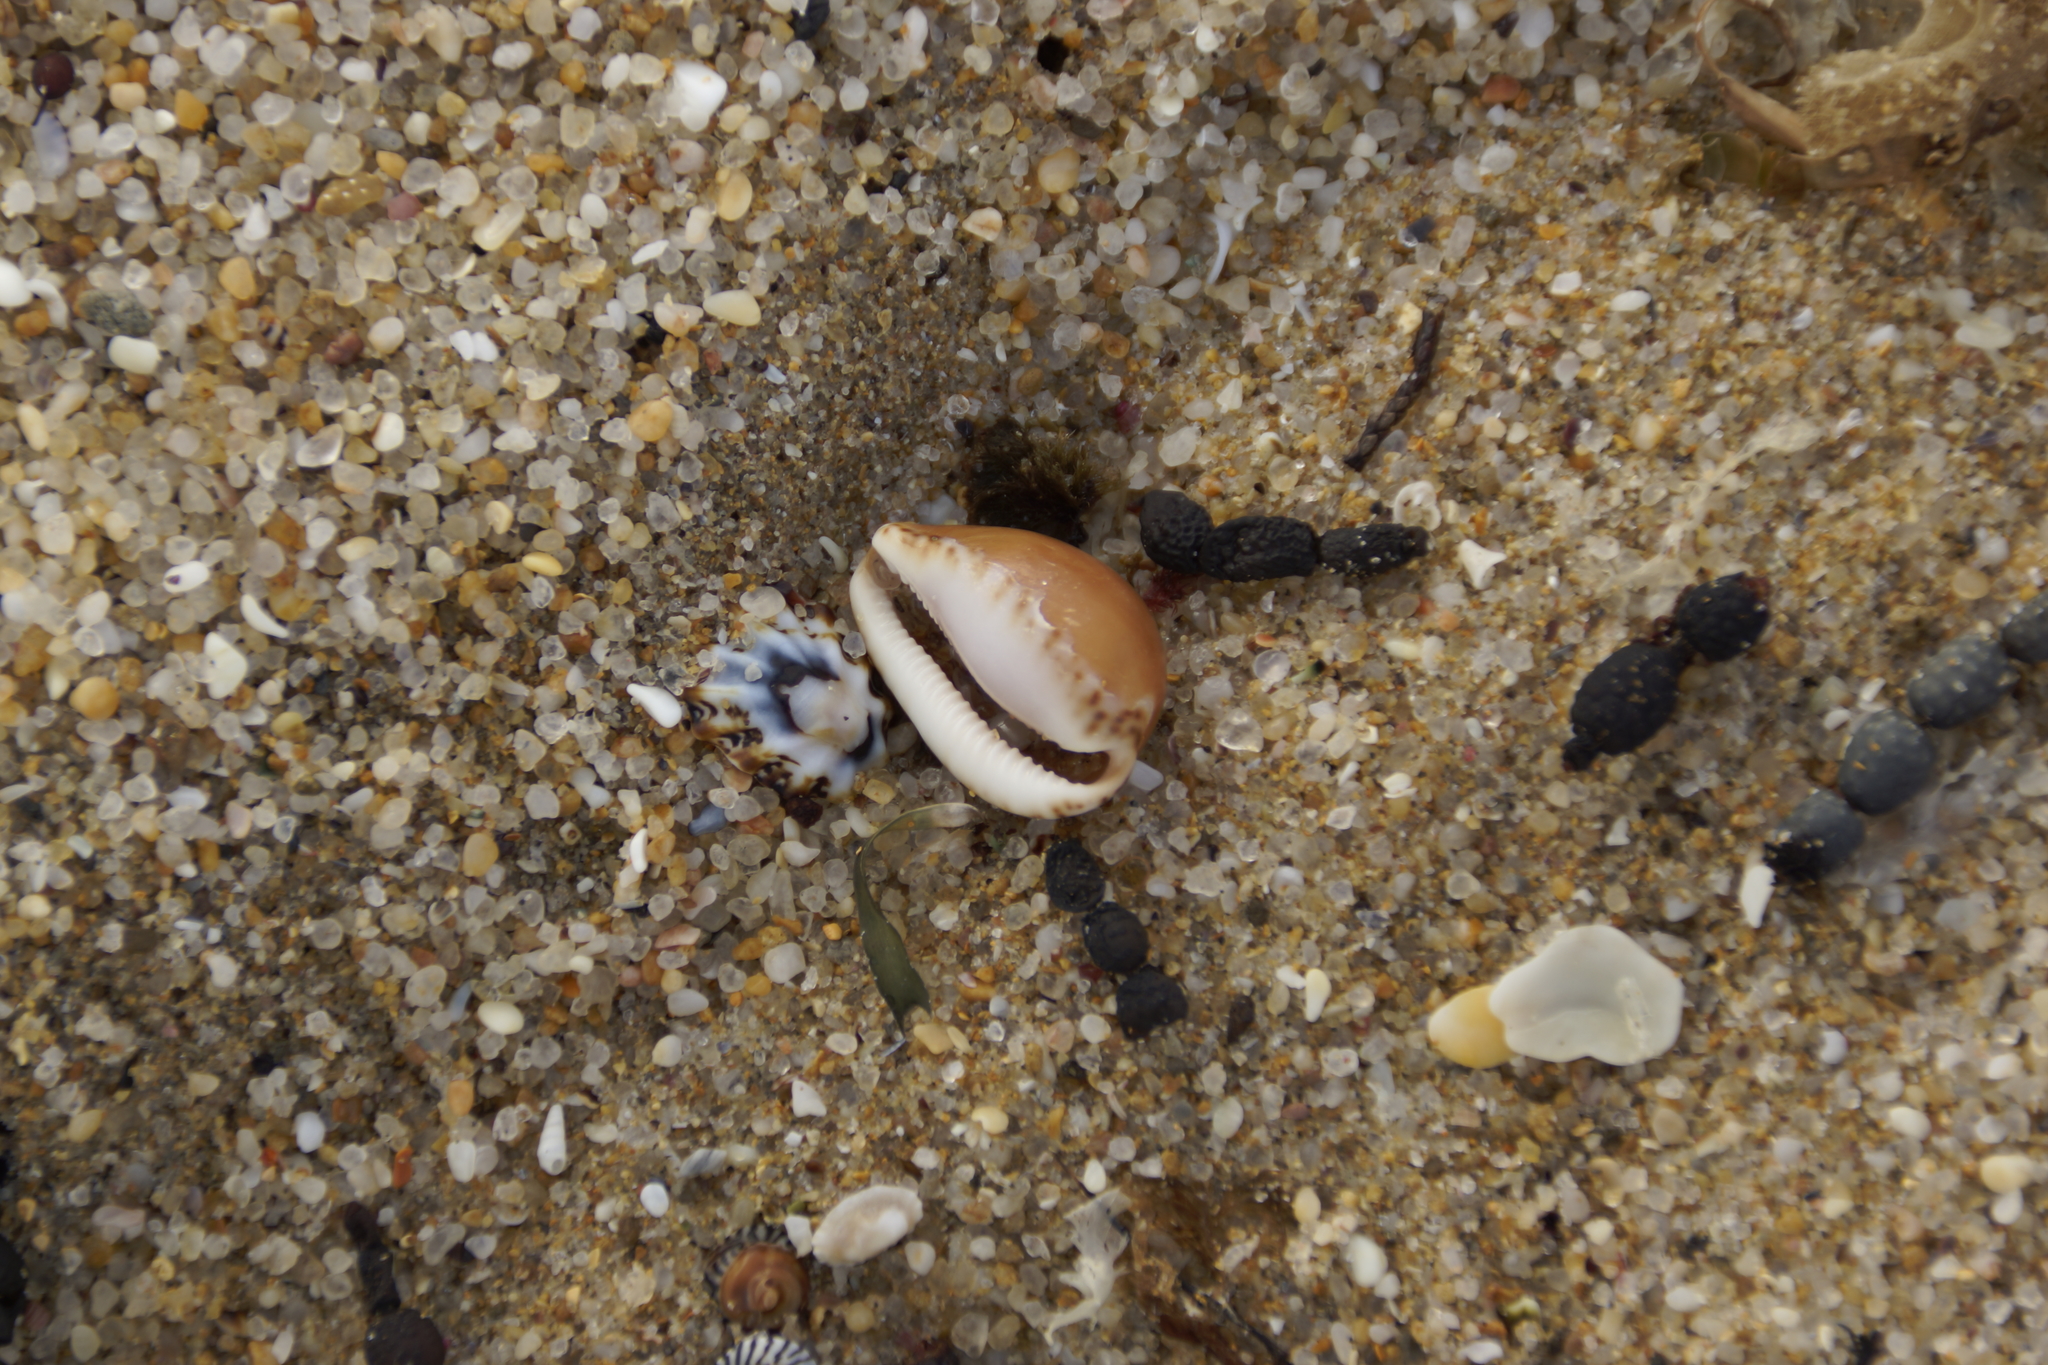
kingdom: Animalia
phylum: Mollusca
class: Gastropoda
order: Littorinimorpha
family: Cypraeidae
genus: Notocypraea
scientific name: Notocypraea angustata
